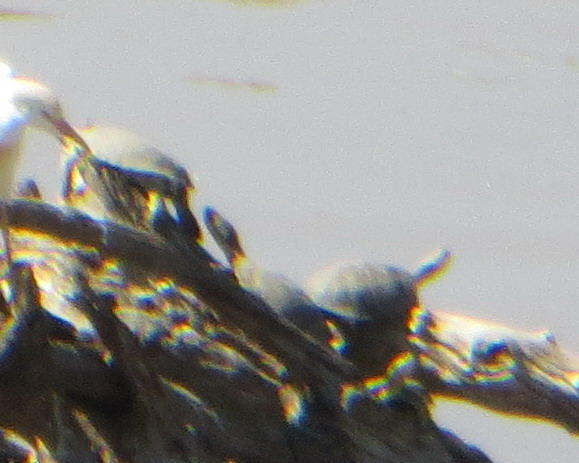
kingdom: Animalia
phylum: Chordata
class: Testudines
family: Pelomedusidae
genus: Pelomedusa
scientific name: Pelomedusa galeata
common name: South african helmeted terrapin
